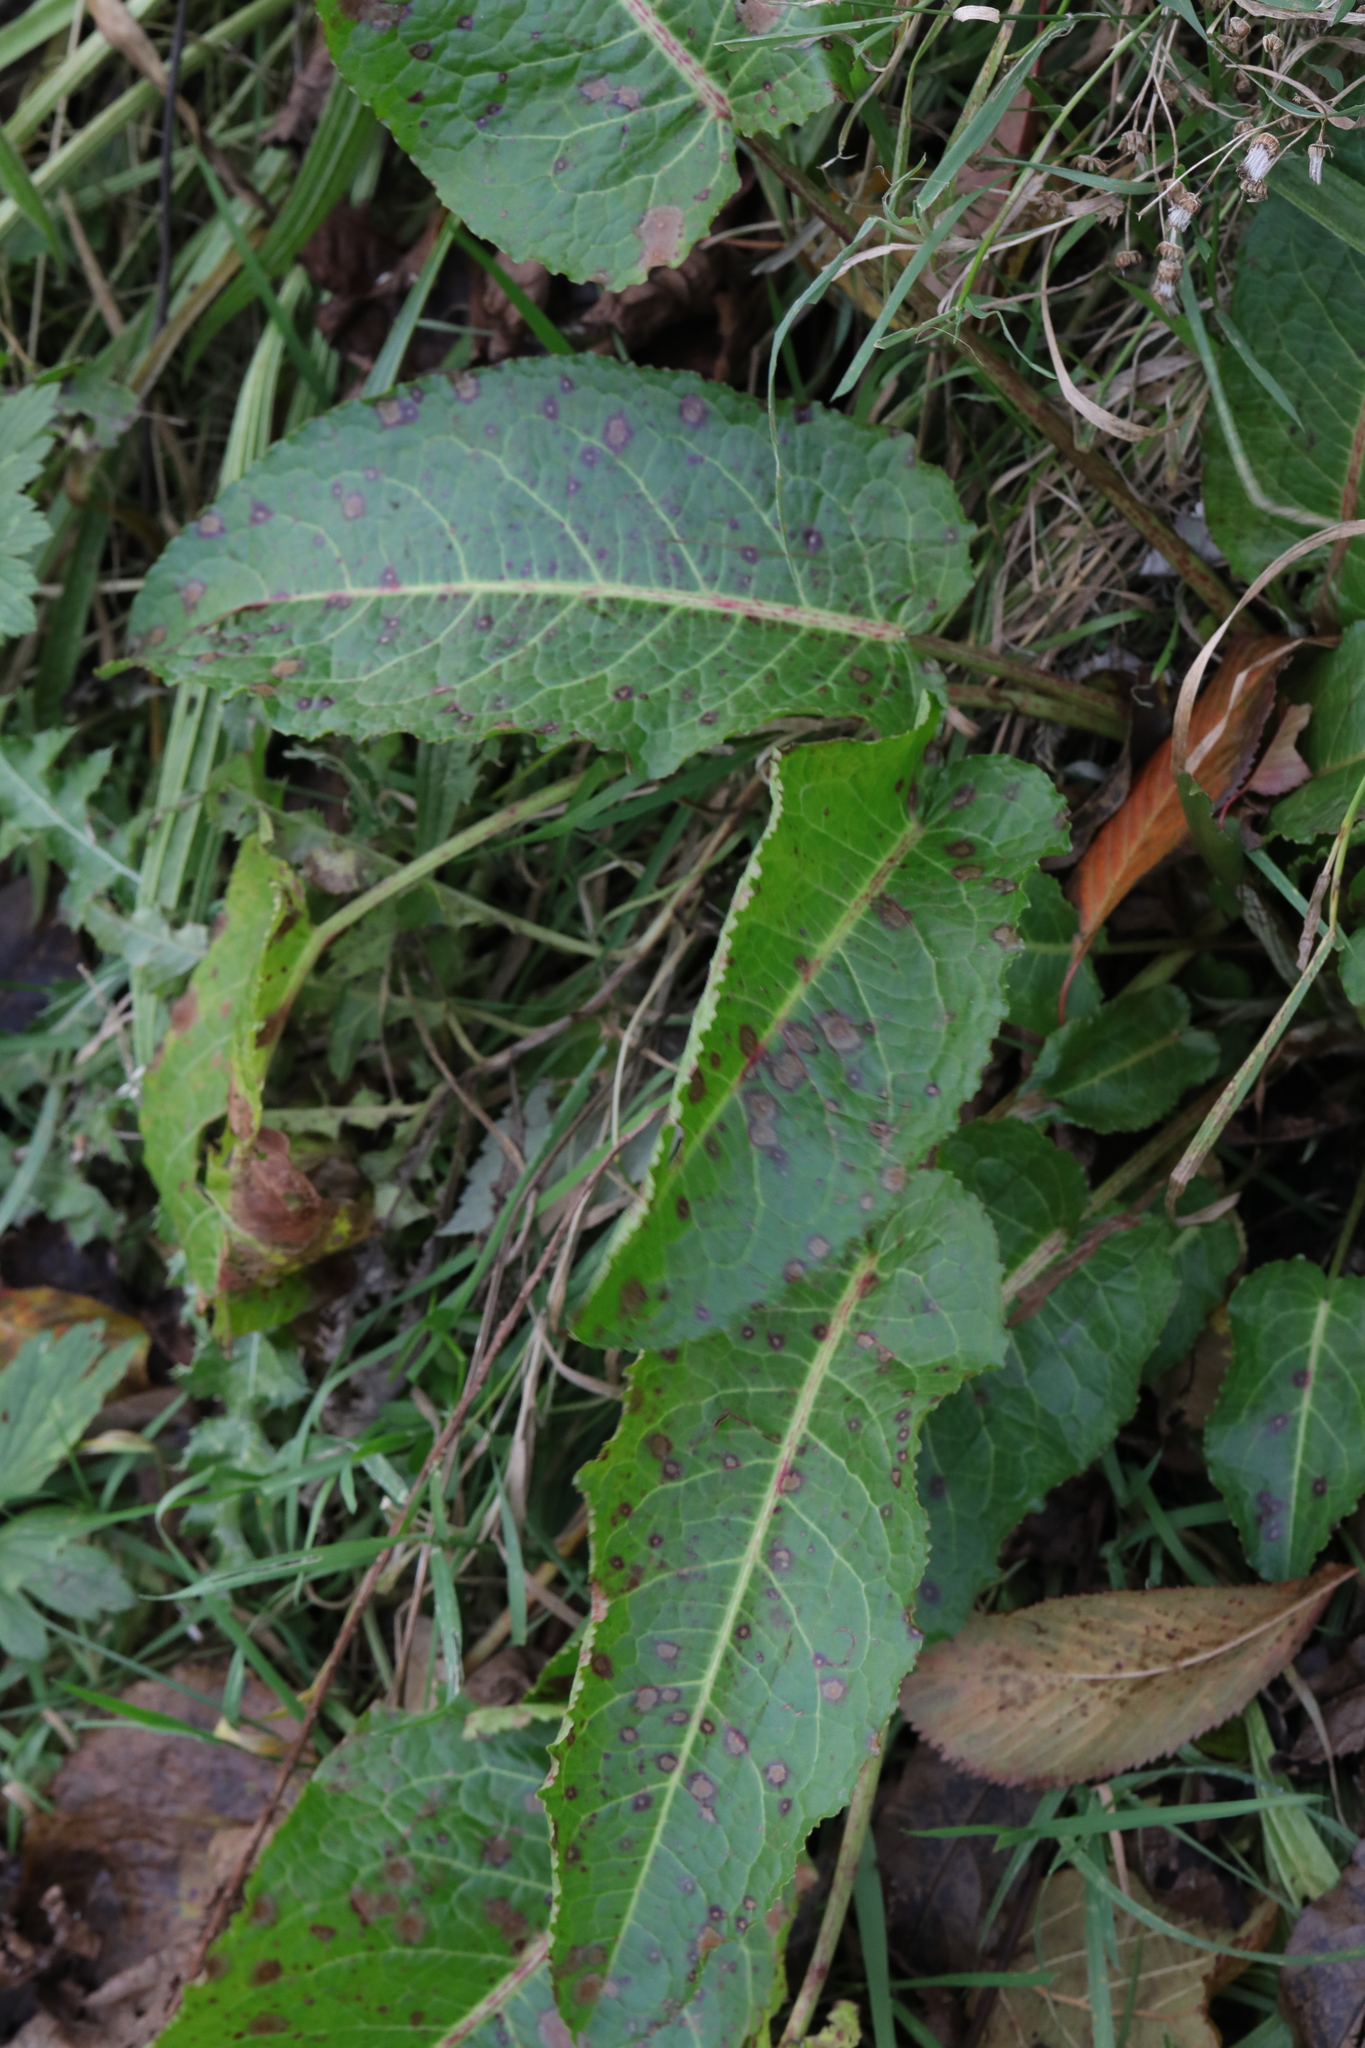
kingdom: Plantae
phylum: Tracheophyta
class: Magnoliopsida
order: Caryophyllales
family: Polygonaceae
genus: Rumex
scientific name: Rumex obtusifolius
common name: Bitter dock
